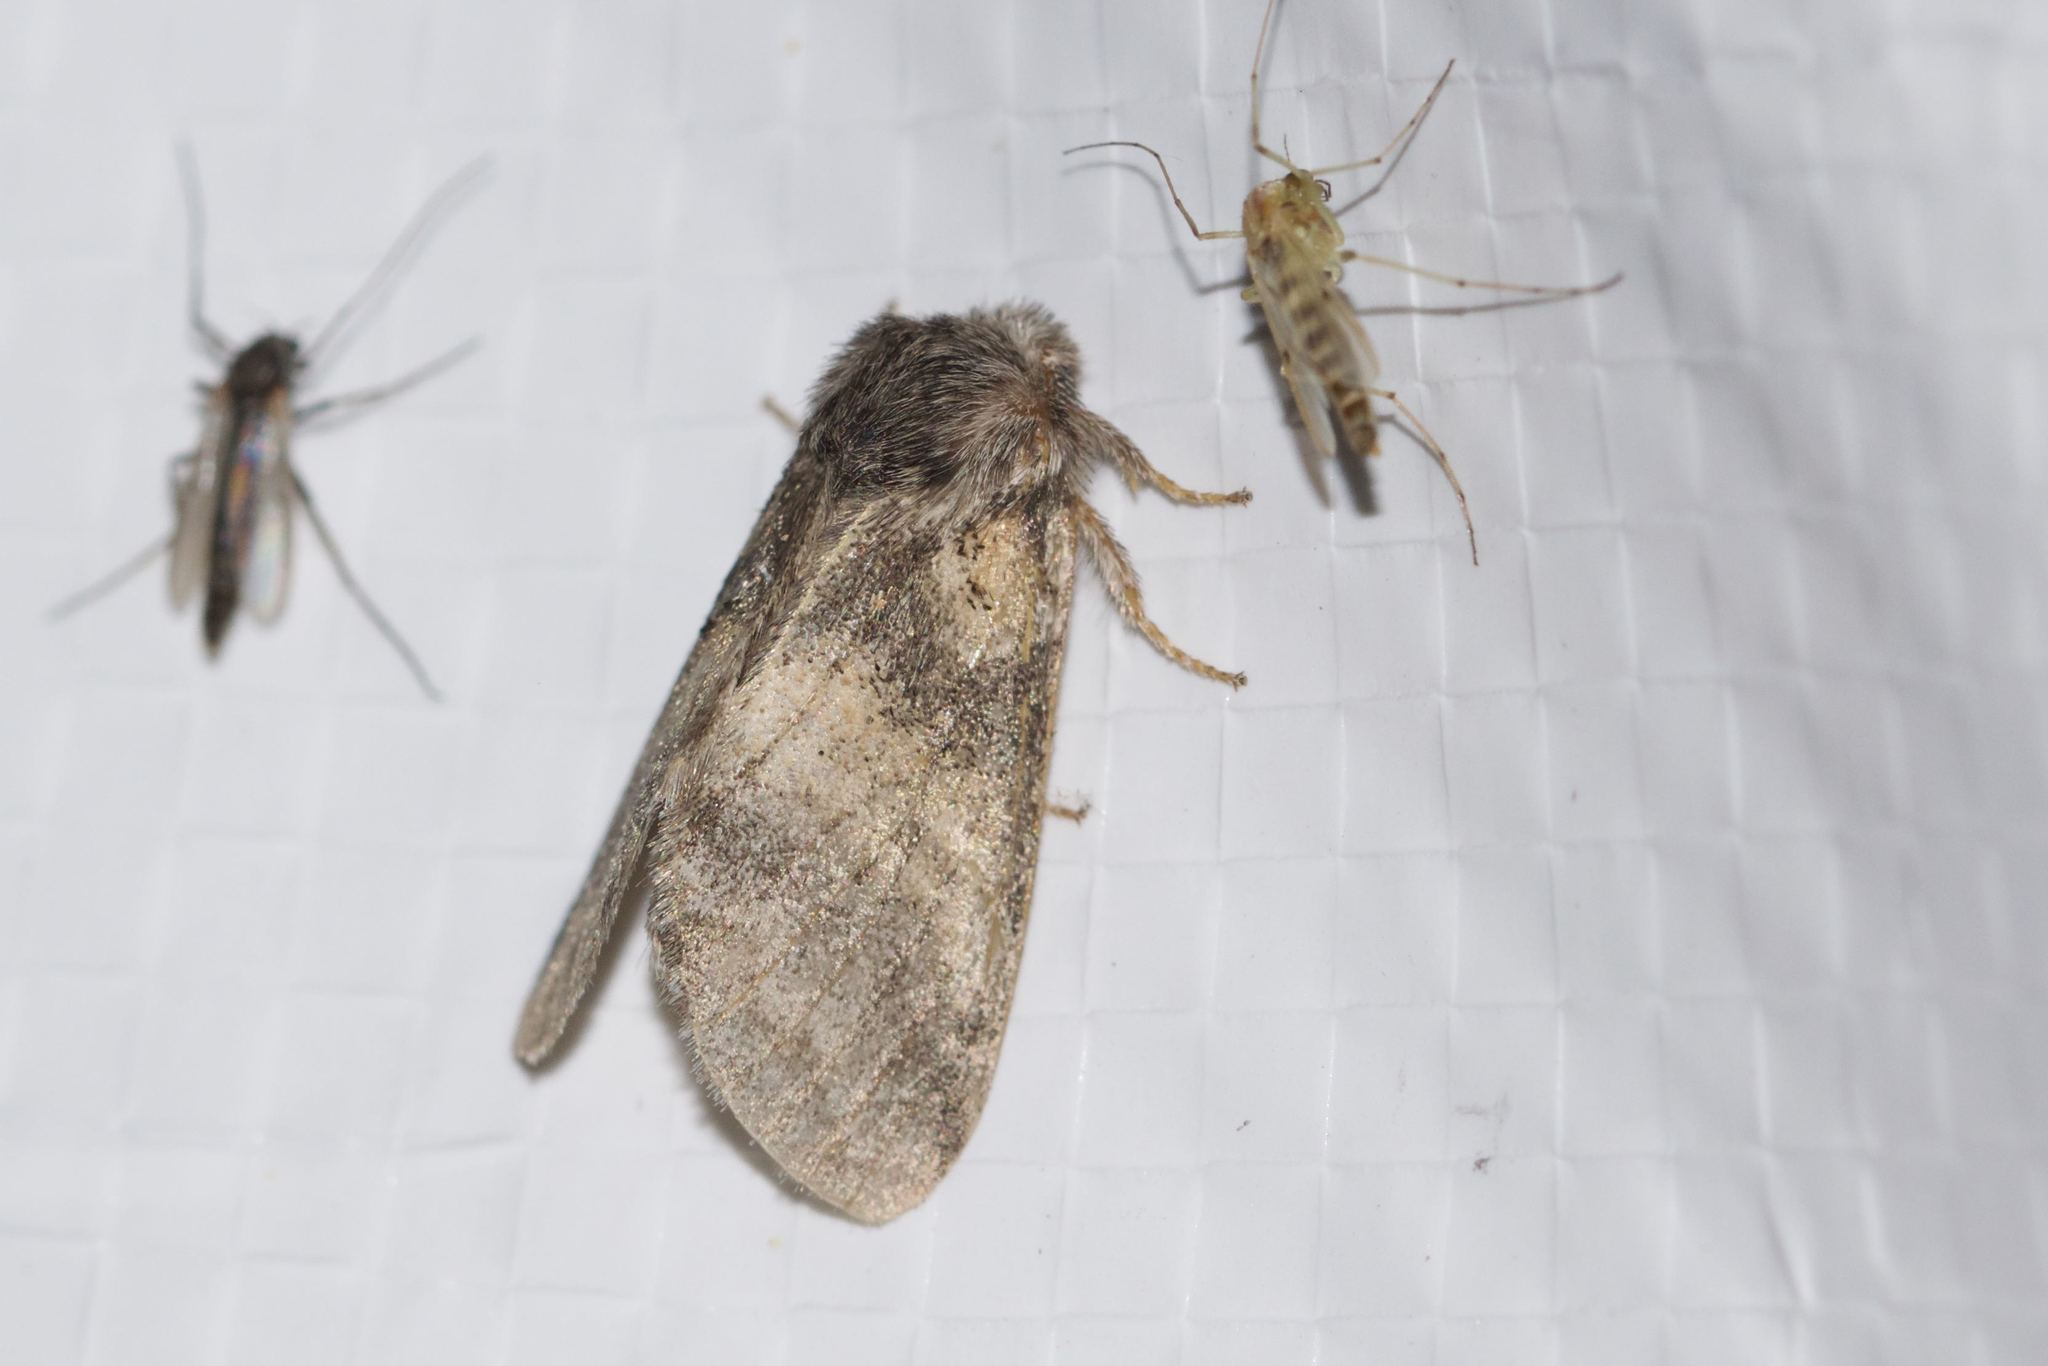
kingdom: Animalia
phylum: Arthropoda
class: Insecta
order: Lepidoptera
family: Notodontidae
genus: Gluphisia
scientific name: Gluphisia septentrionis
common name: Common gluphisia
